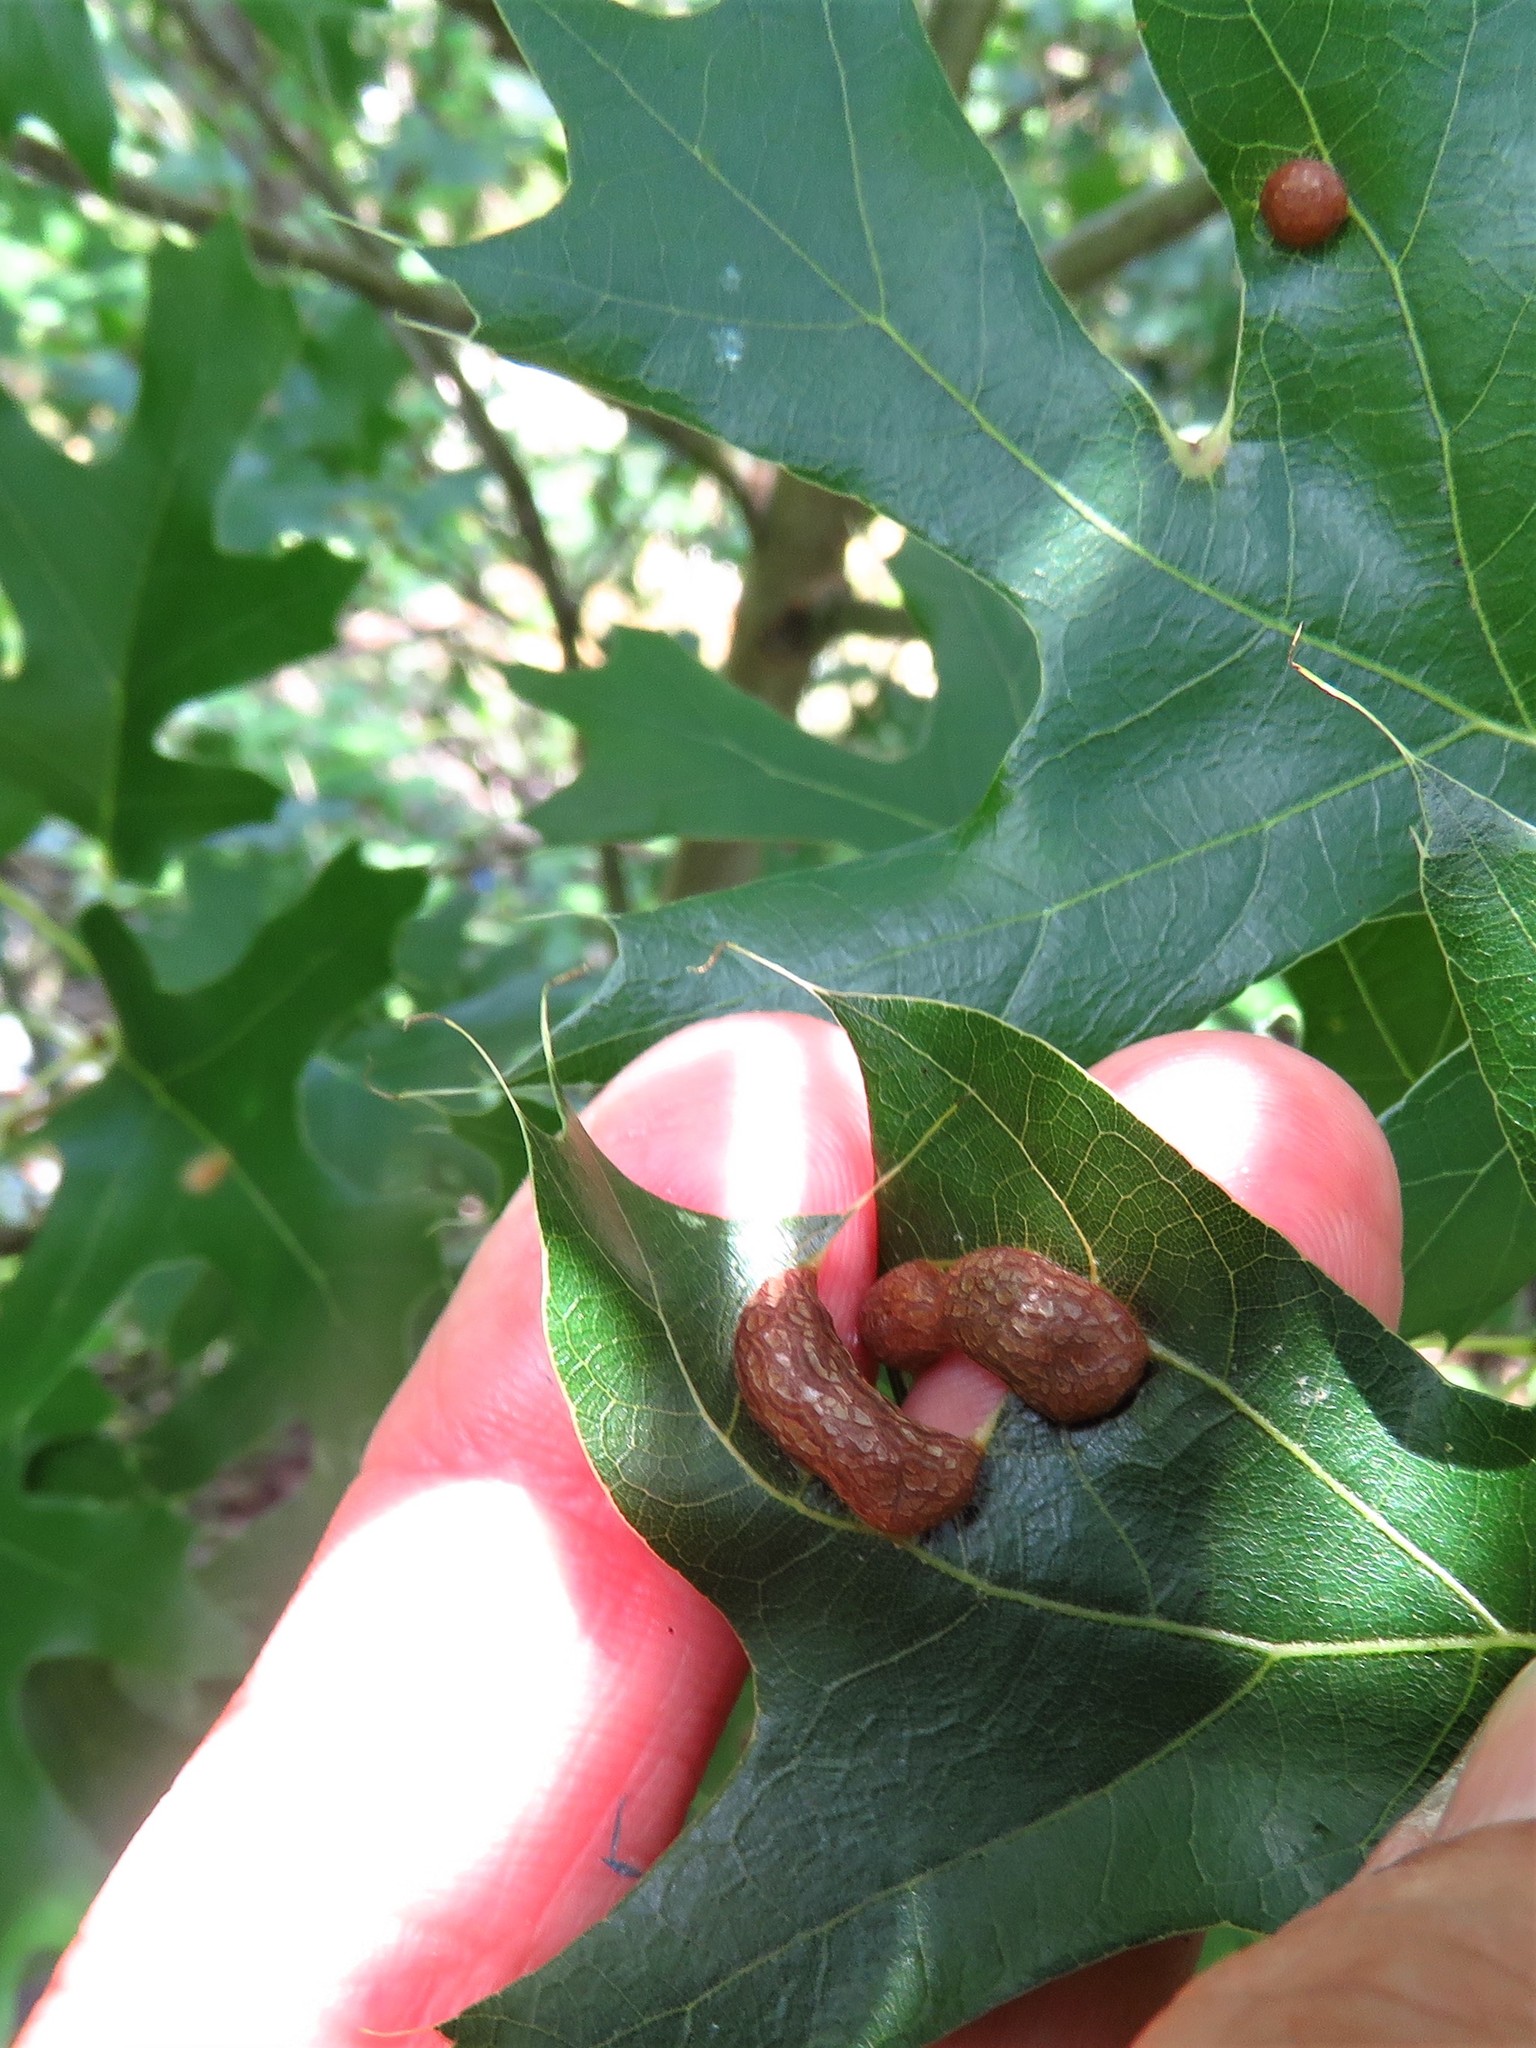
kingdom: Animalia
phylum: Arthropoda
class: Insecta
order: Diptera
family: Cecidomyiidae
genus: Polystepha
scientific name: Polystepha pilulae
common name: Oak leaf gall midge
